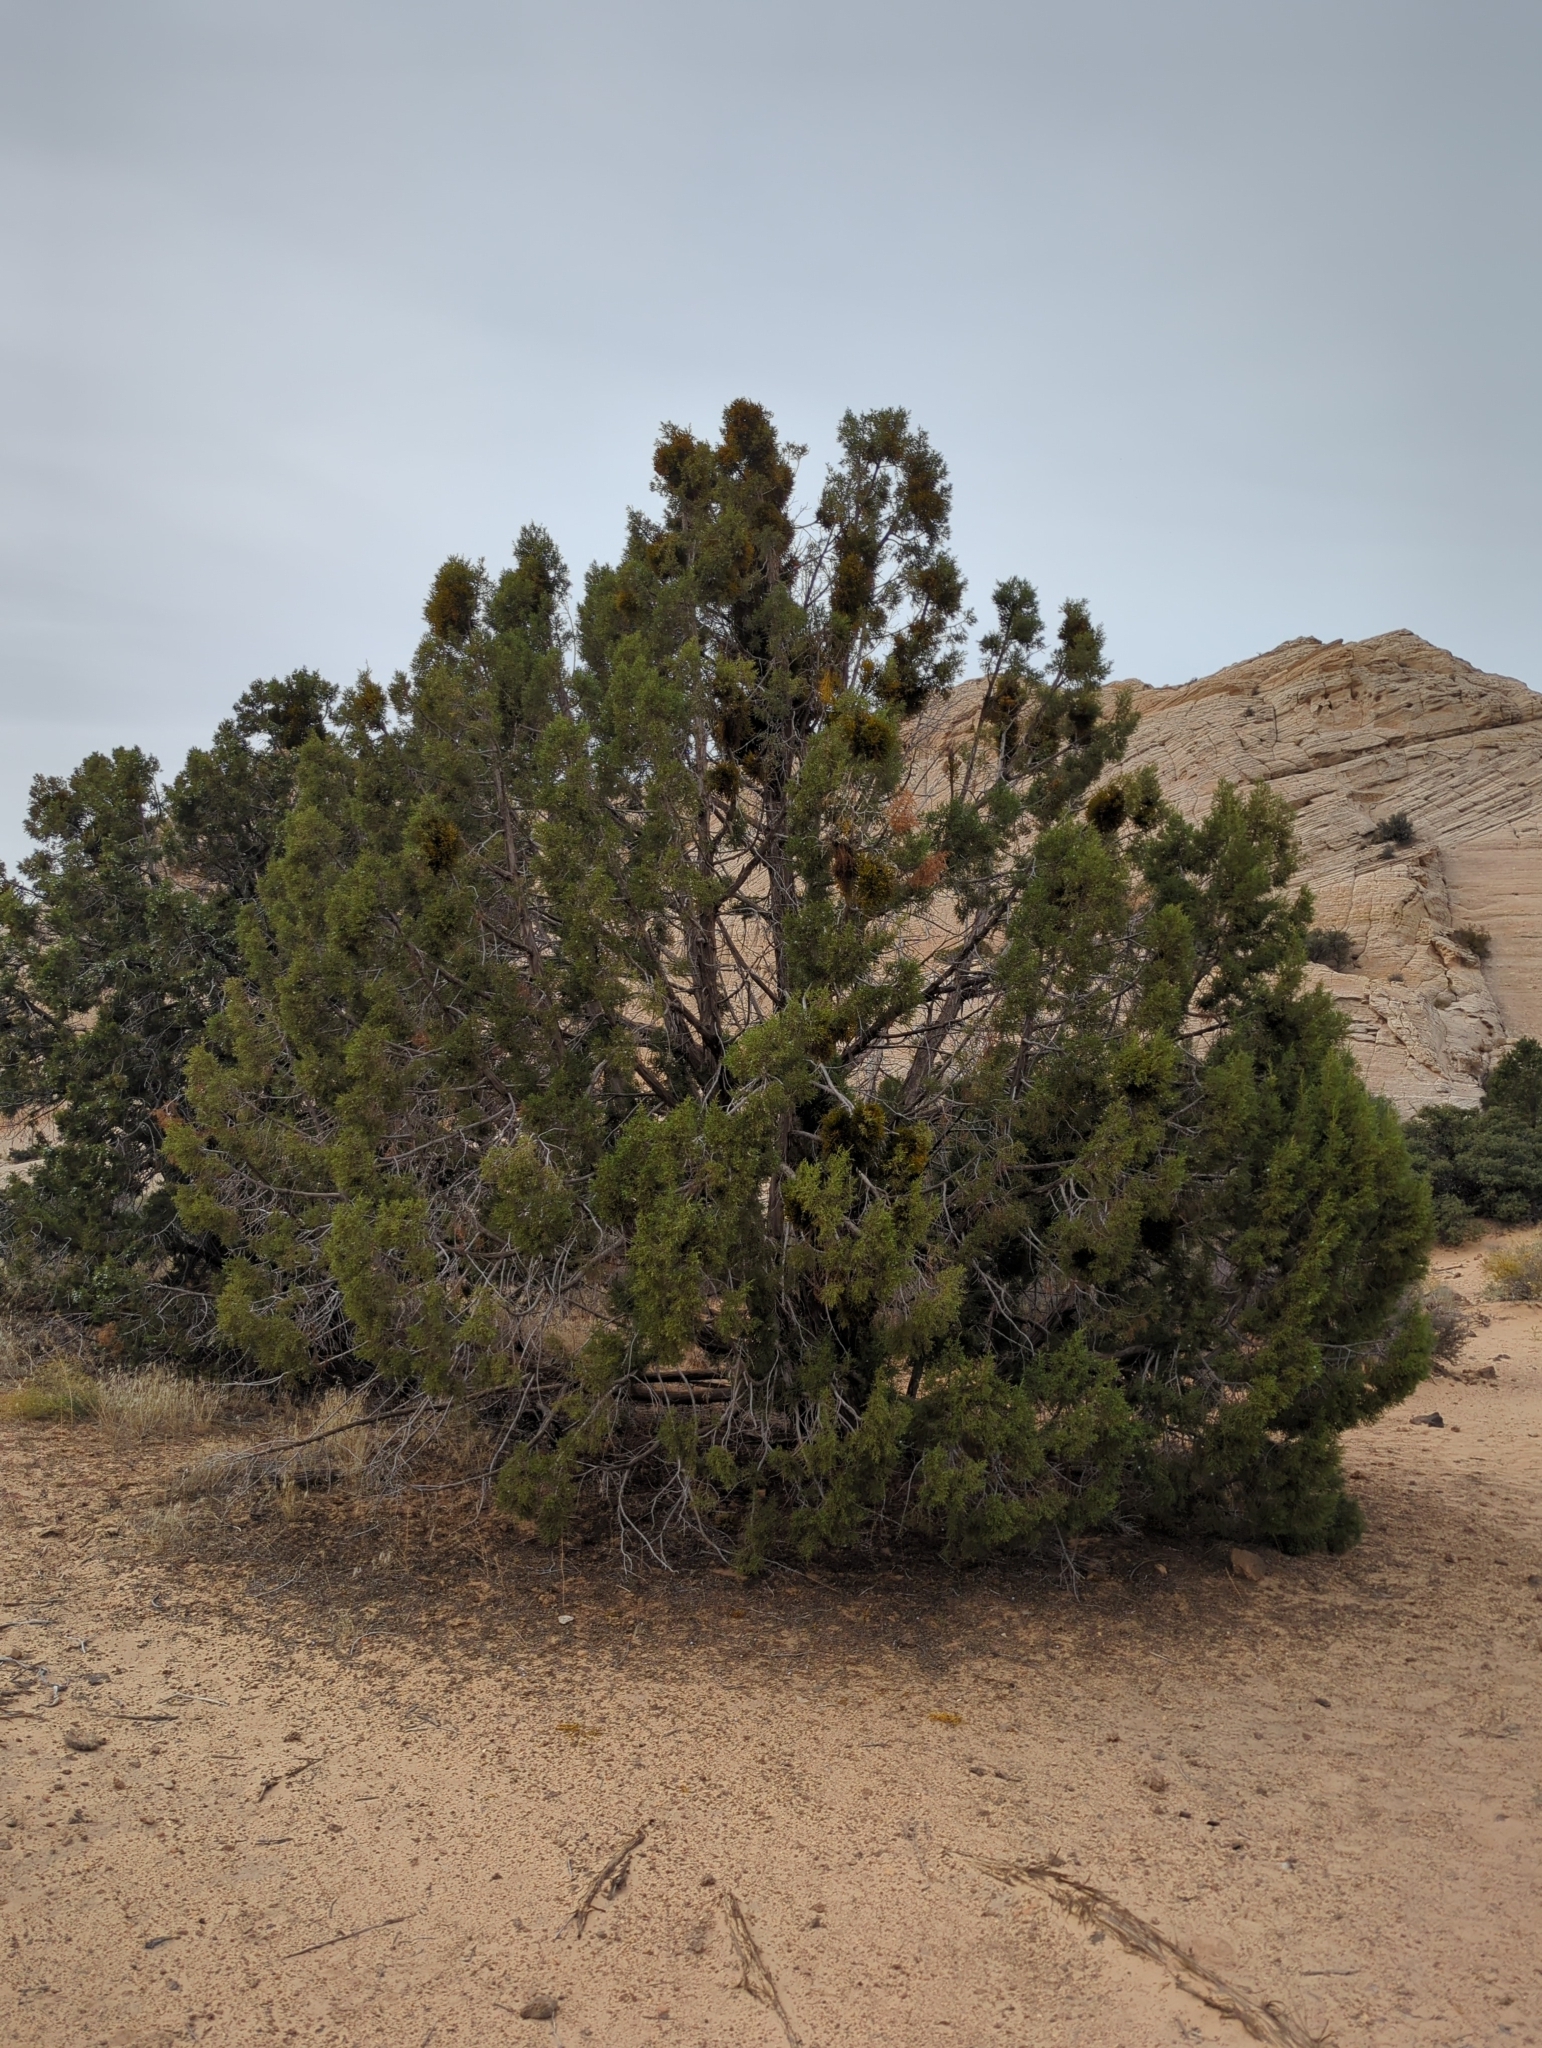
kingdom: Plantae
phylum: Tracheophyta
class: Pinopsida
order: Pinales
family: Cupressaceae
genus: Juniperus
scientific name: Juniperus osteosperma
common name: Utah juniper
